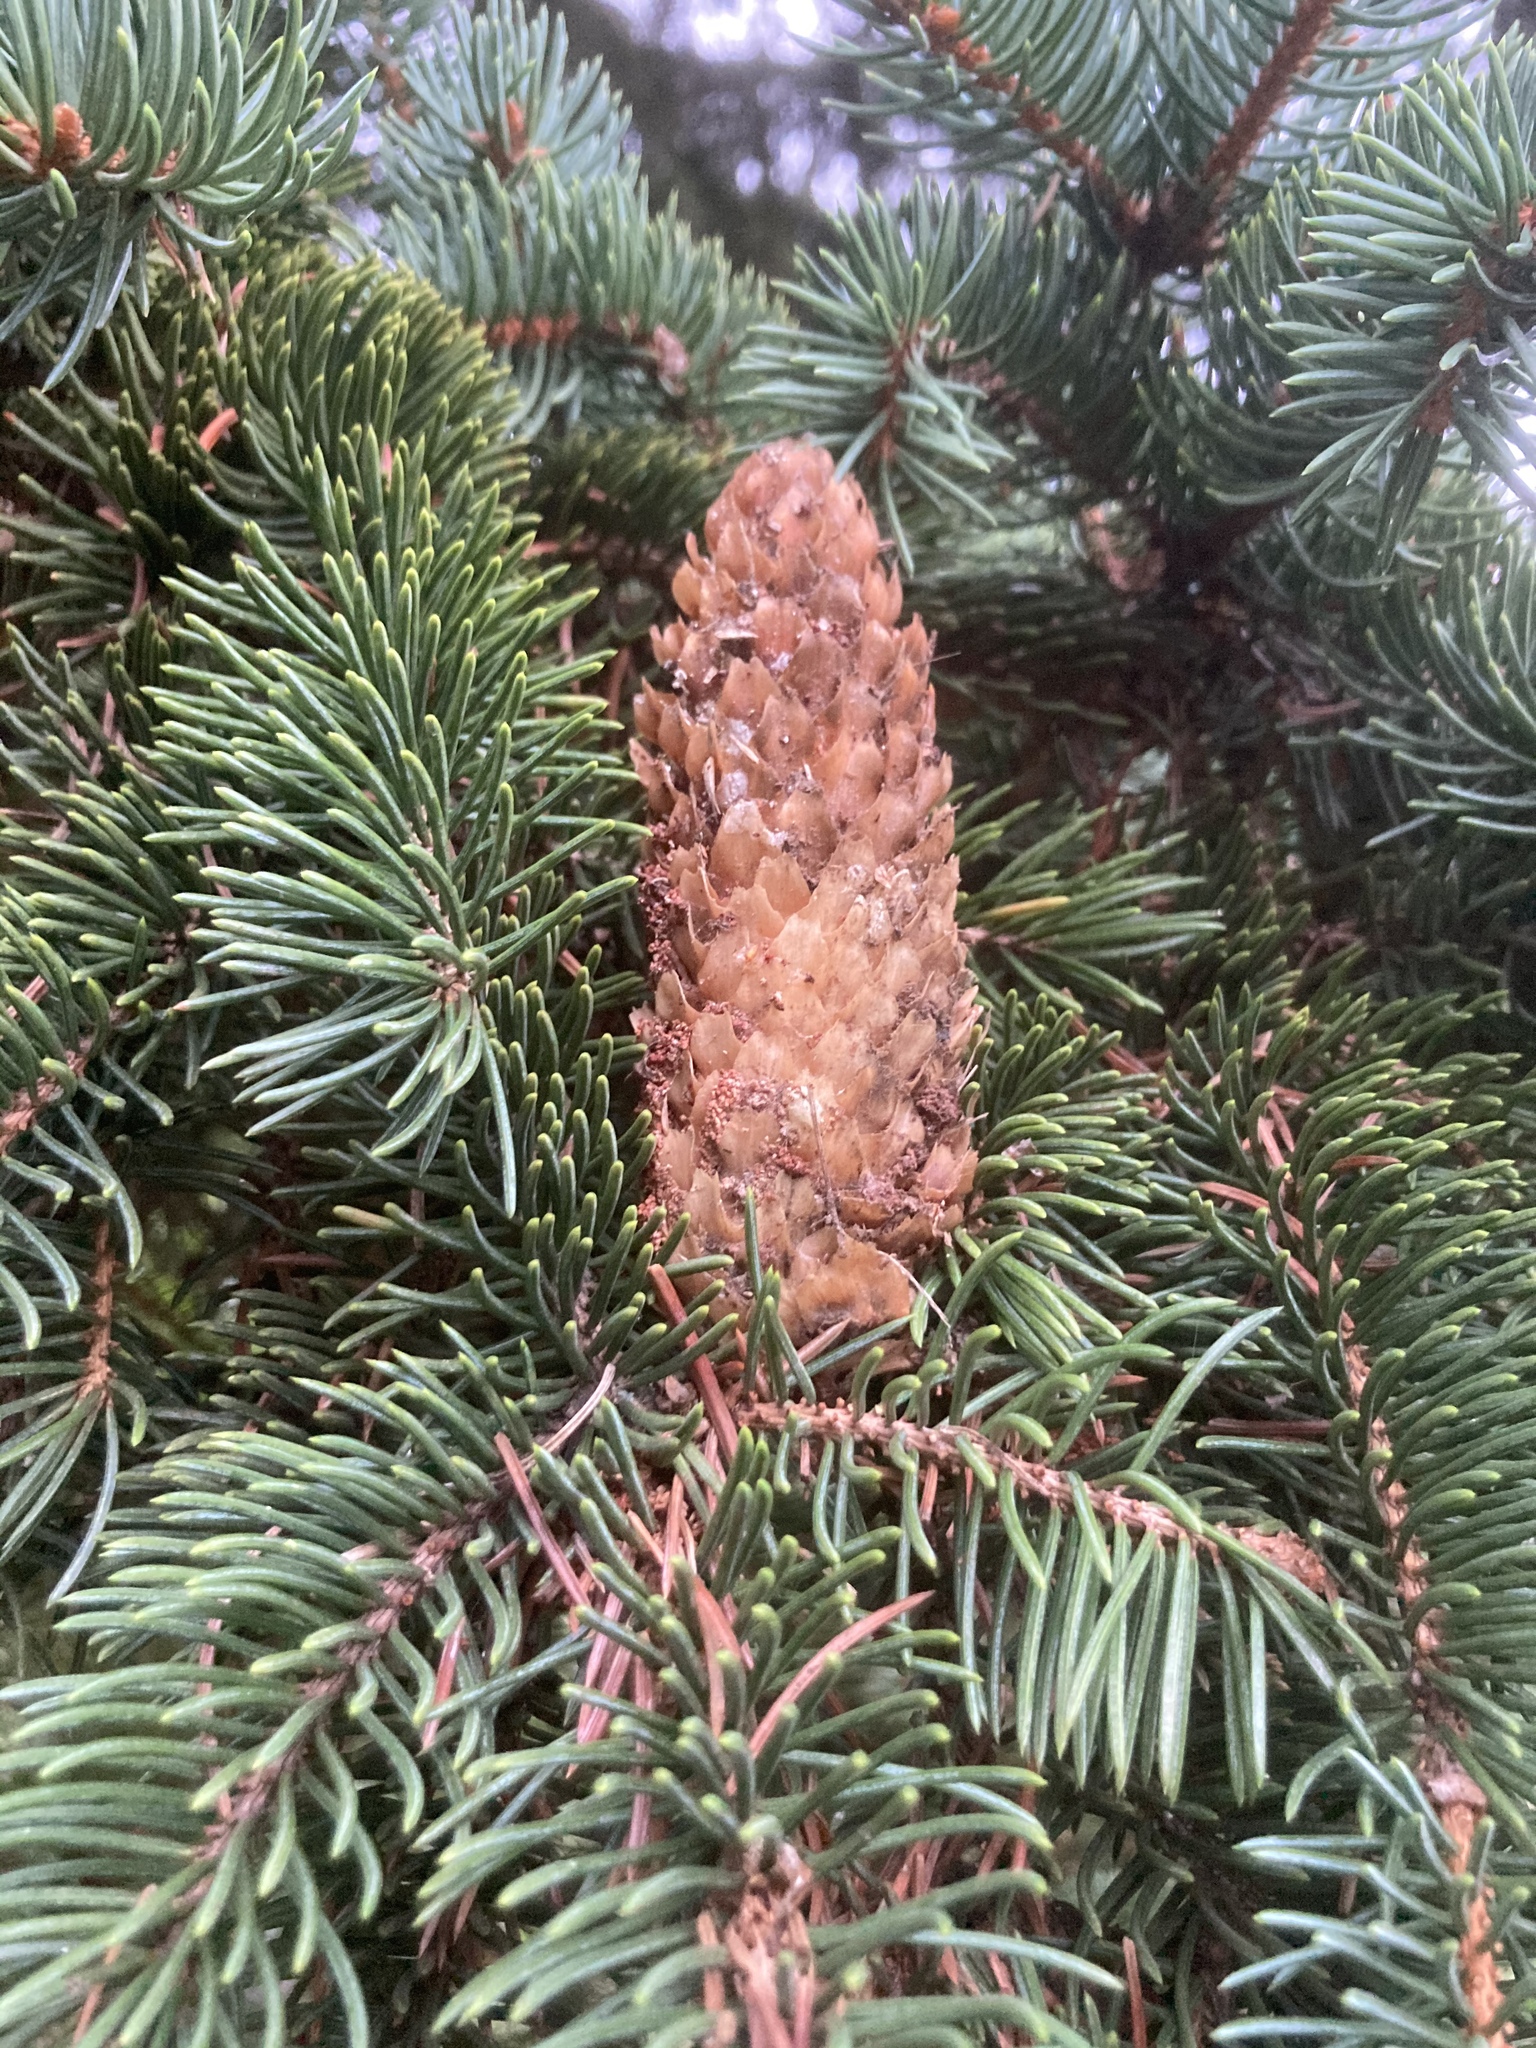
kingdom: Plantae
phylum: Tracheophyta
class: Pinopsida
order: Pinales
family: Pinaceae
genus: Picea
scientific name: Picea pungens
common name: Colorado spruce
